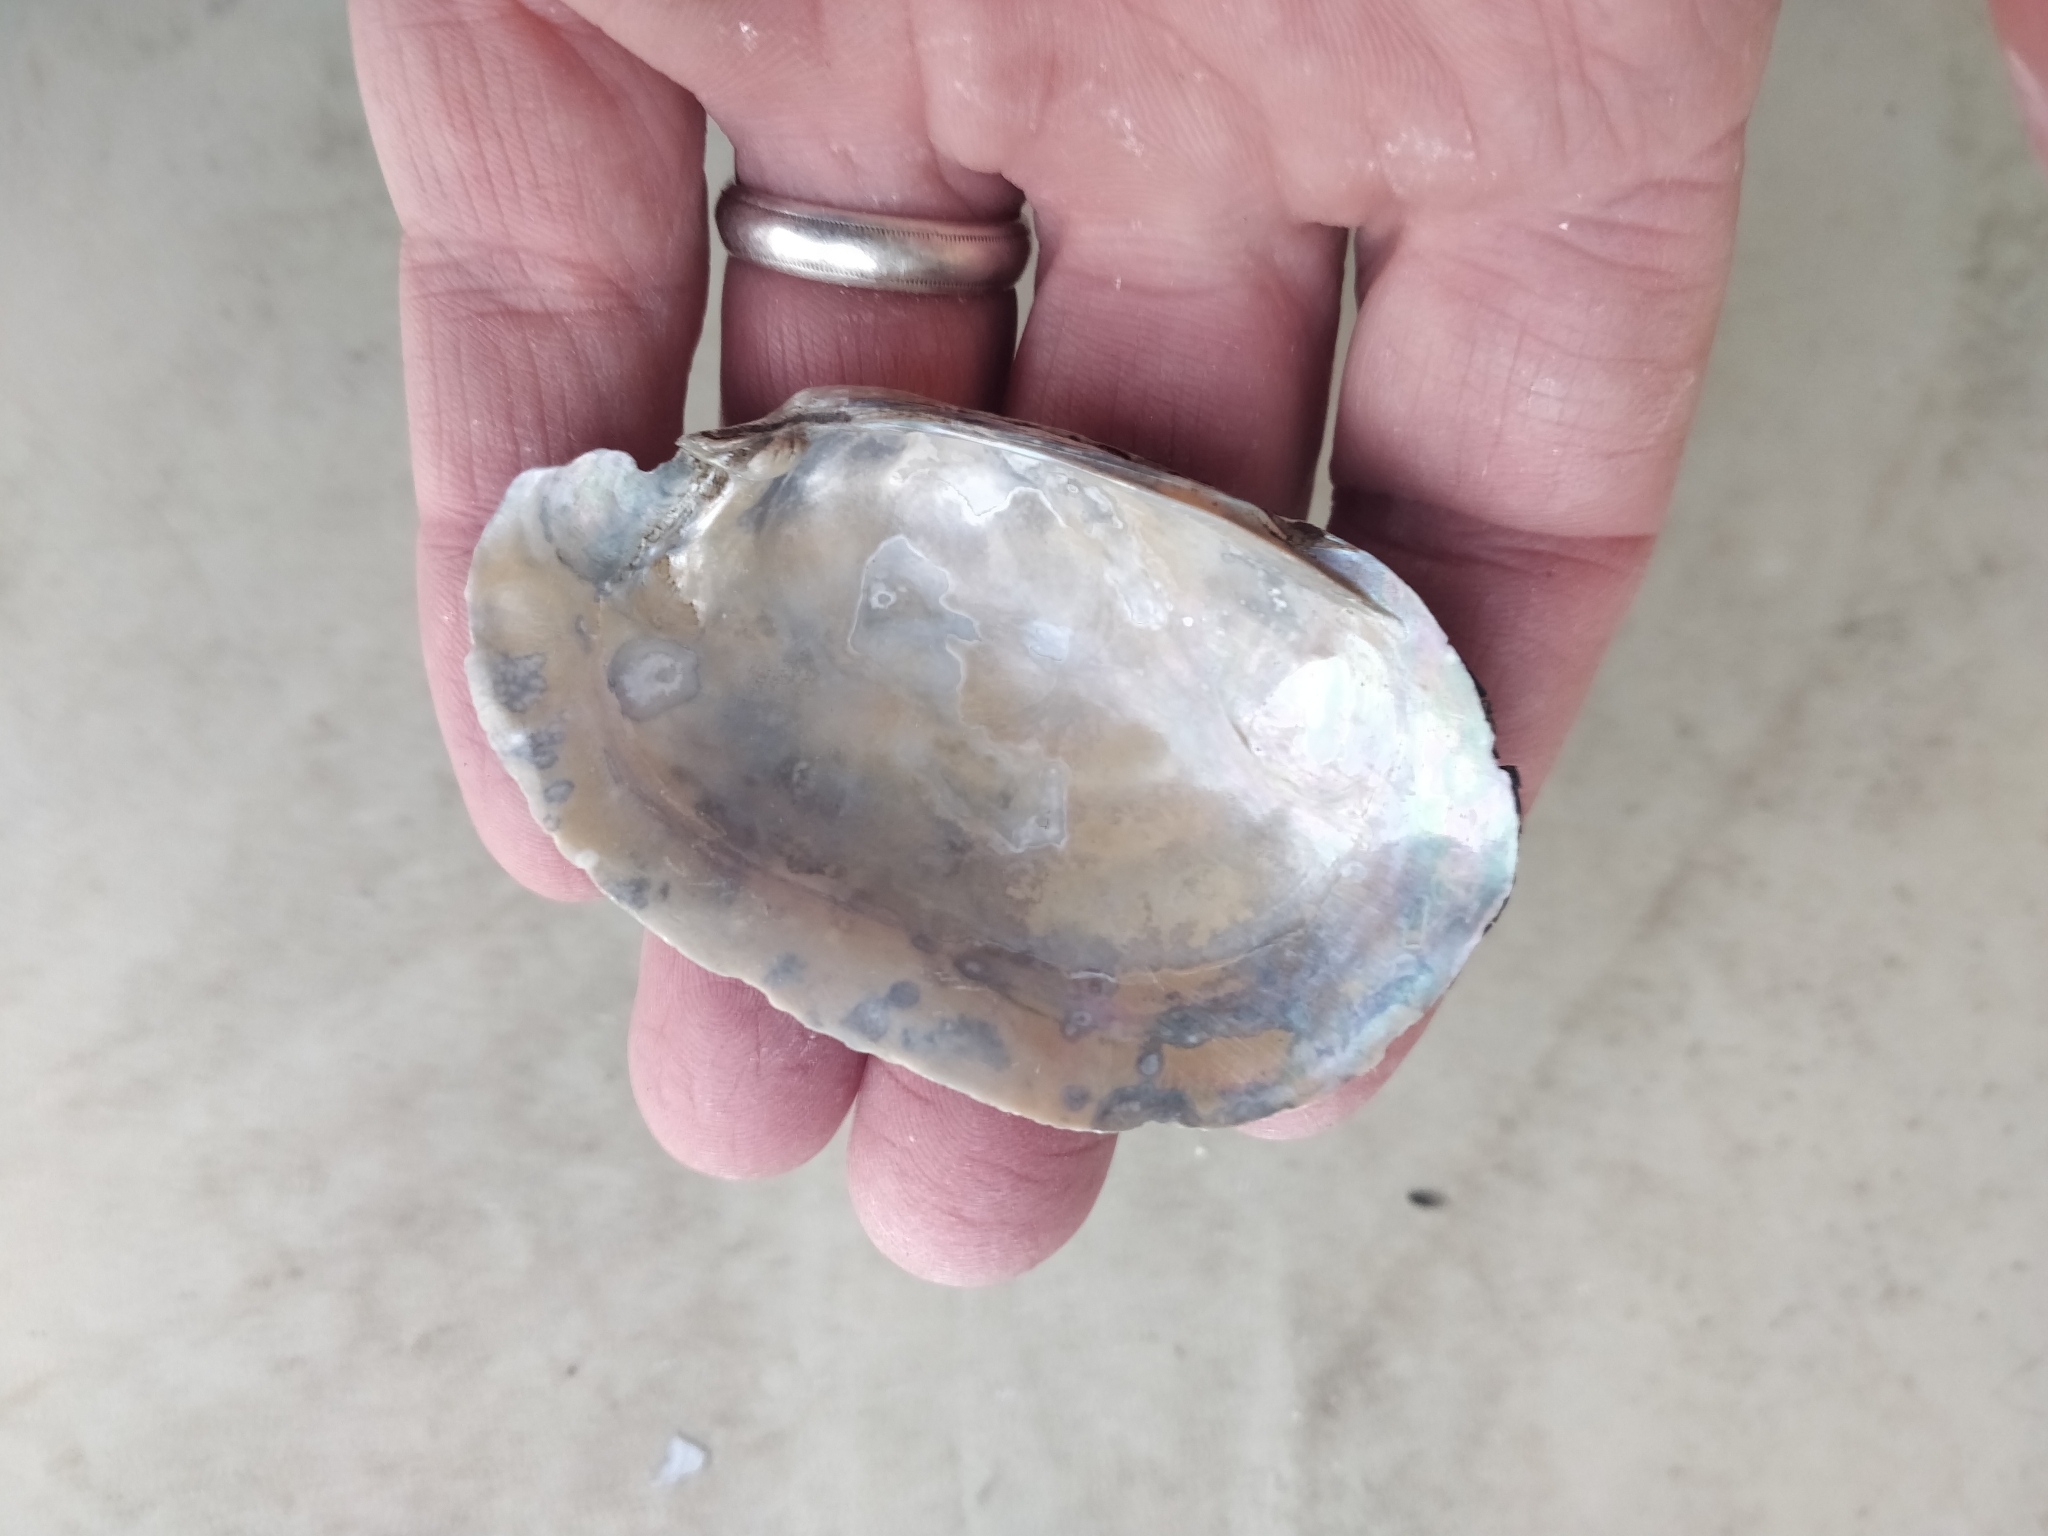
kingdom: Animalia
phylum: Mollusca
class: Bivalvia
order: Unionida
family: Unionidae
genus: Lampsilis
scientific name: Lampsilis siliquoidea
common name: Fatmucket
